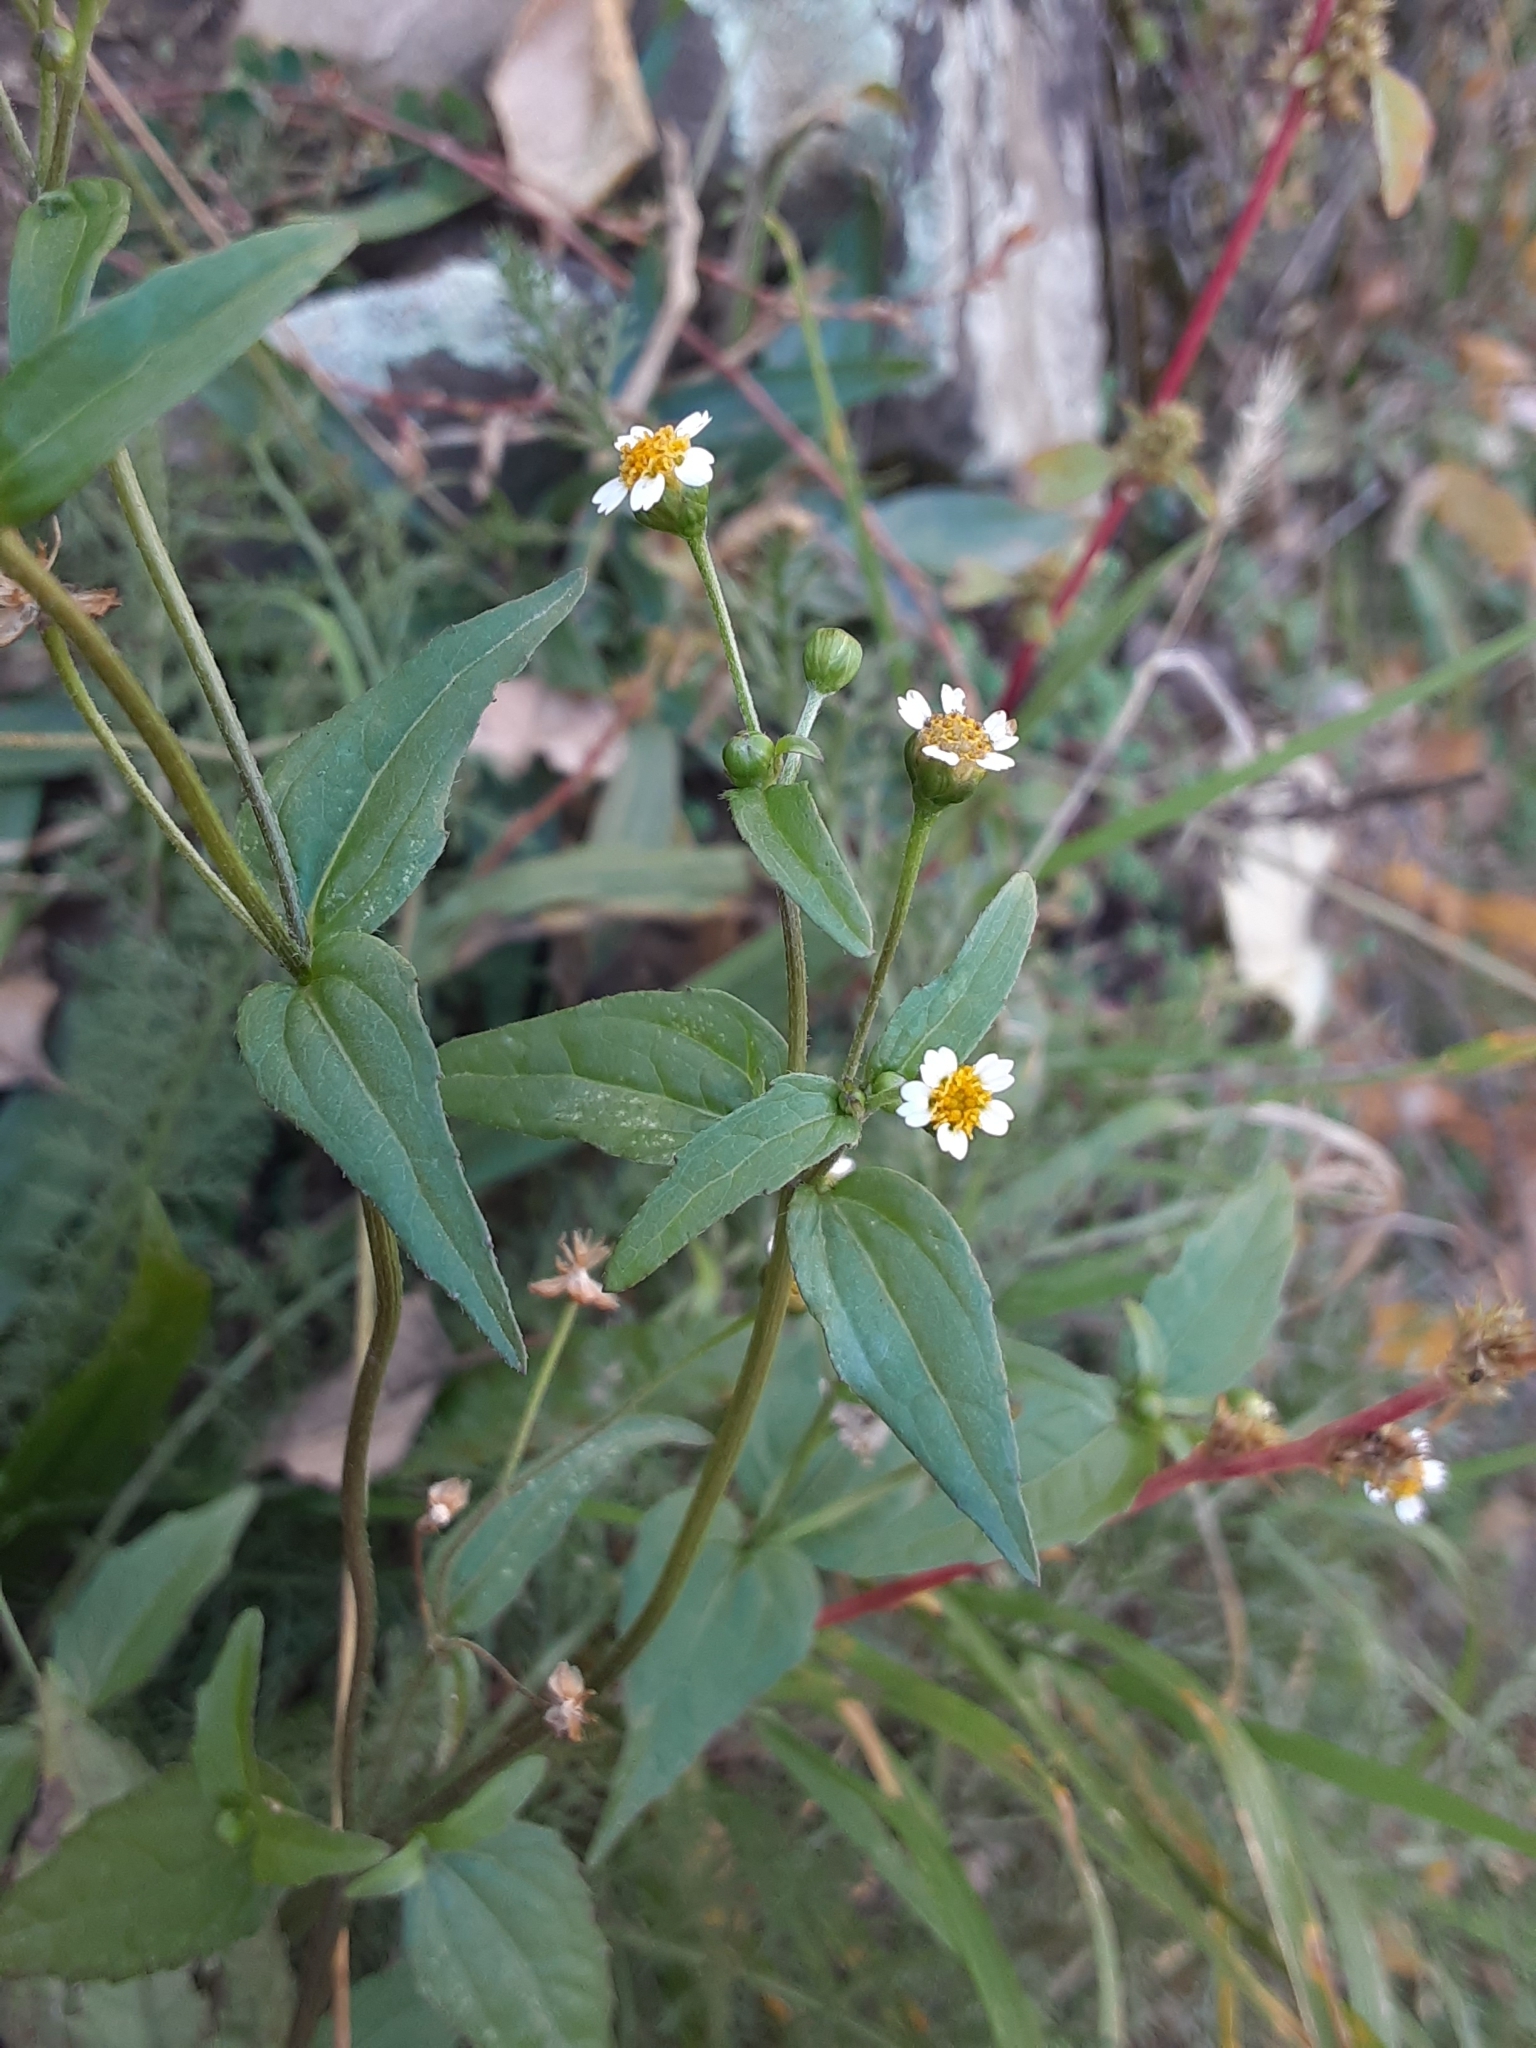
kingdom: Plantae
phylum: Tracheophyta
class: Magnoliopsida
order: Asterales
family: Asteraceae
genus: Galinsoga
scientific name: Galinsoga parviflora
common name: Gallant soldier
